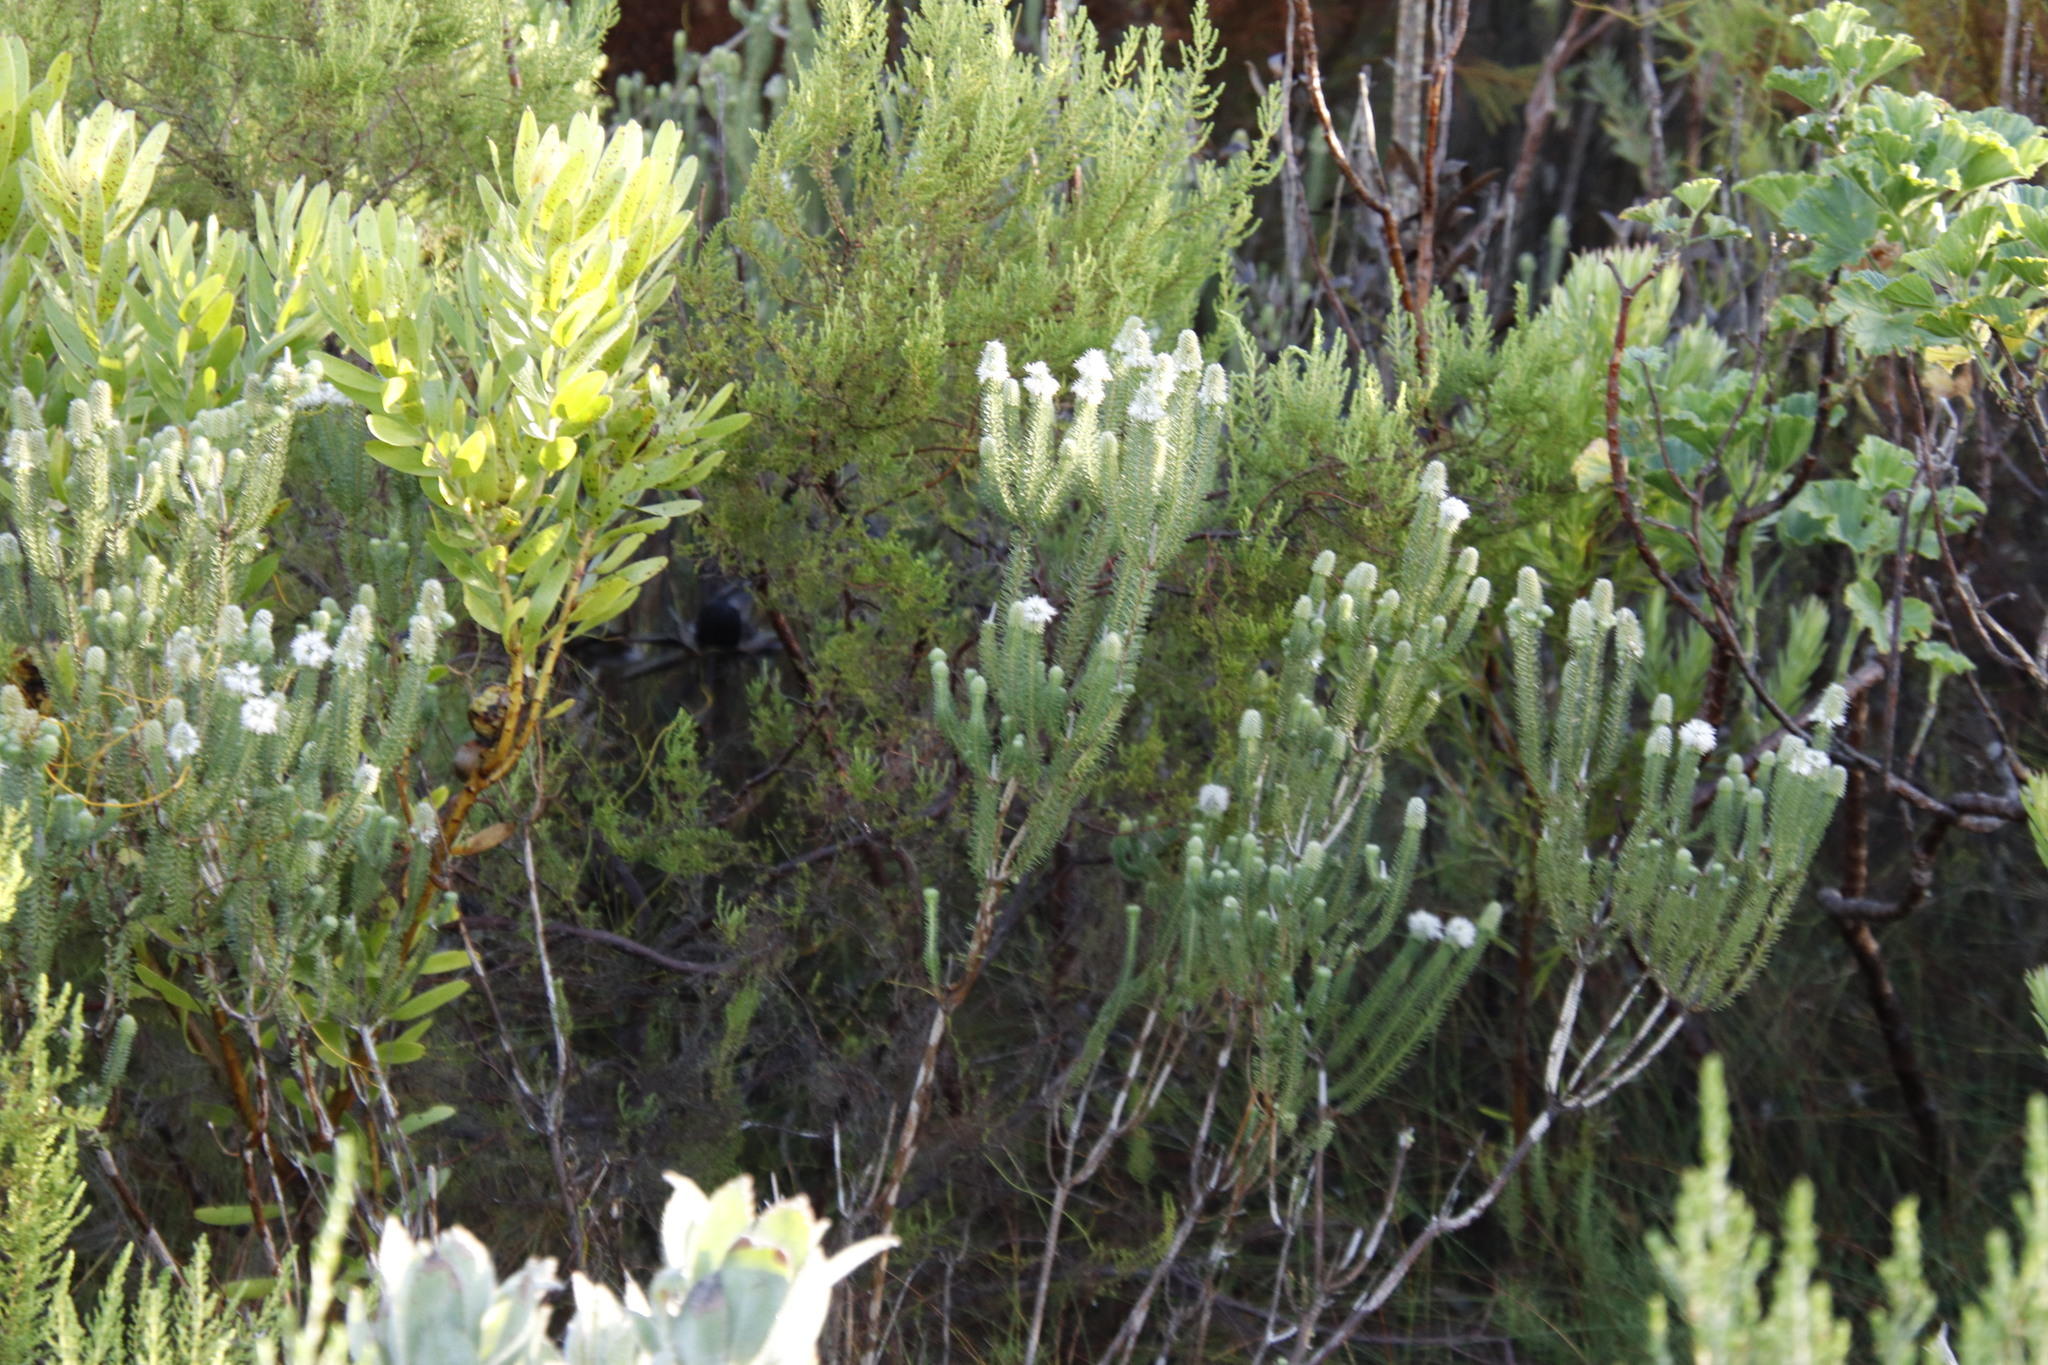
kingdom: Plantae
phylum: Tracheophyta
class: Magnoliopsida
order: Lamiales
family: Stilbaceae
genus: Stilbe
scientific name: Stilbe vestita
